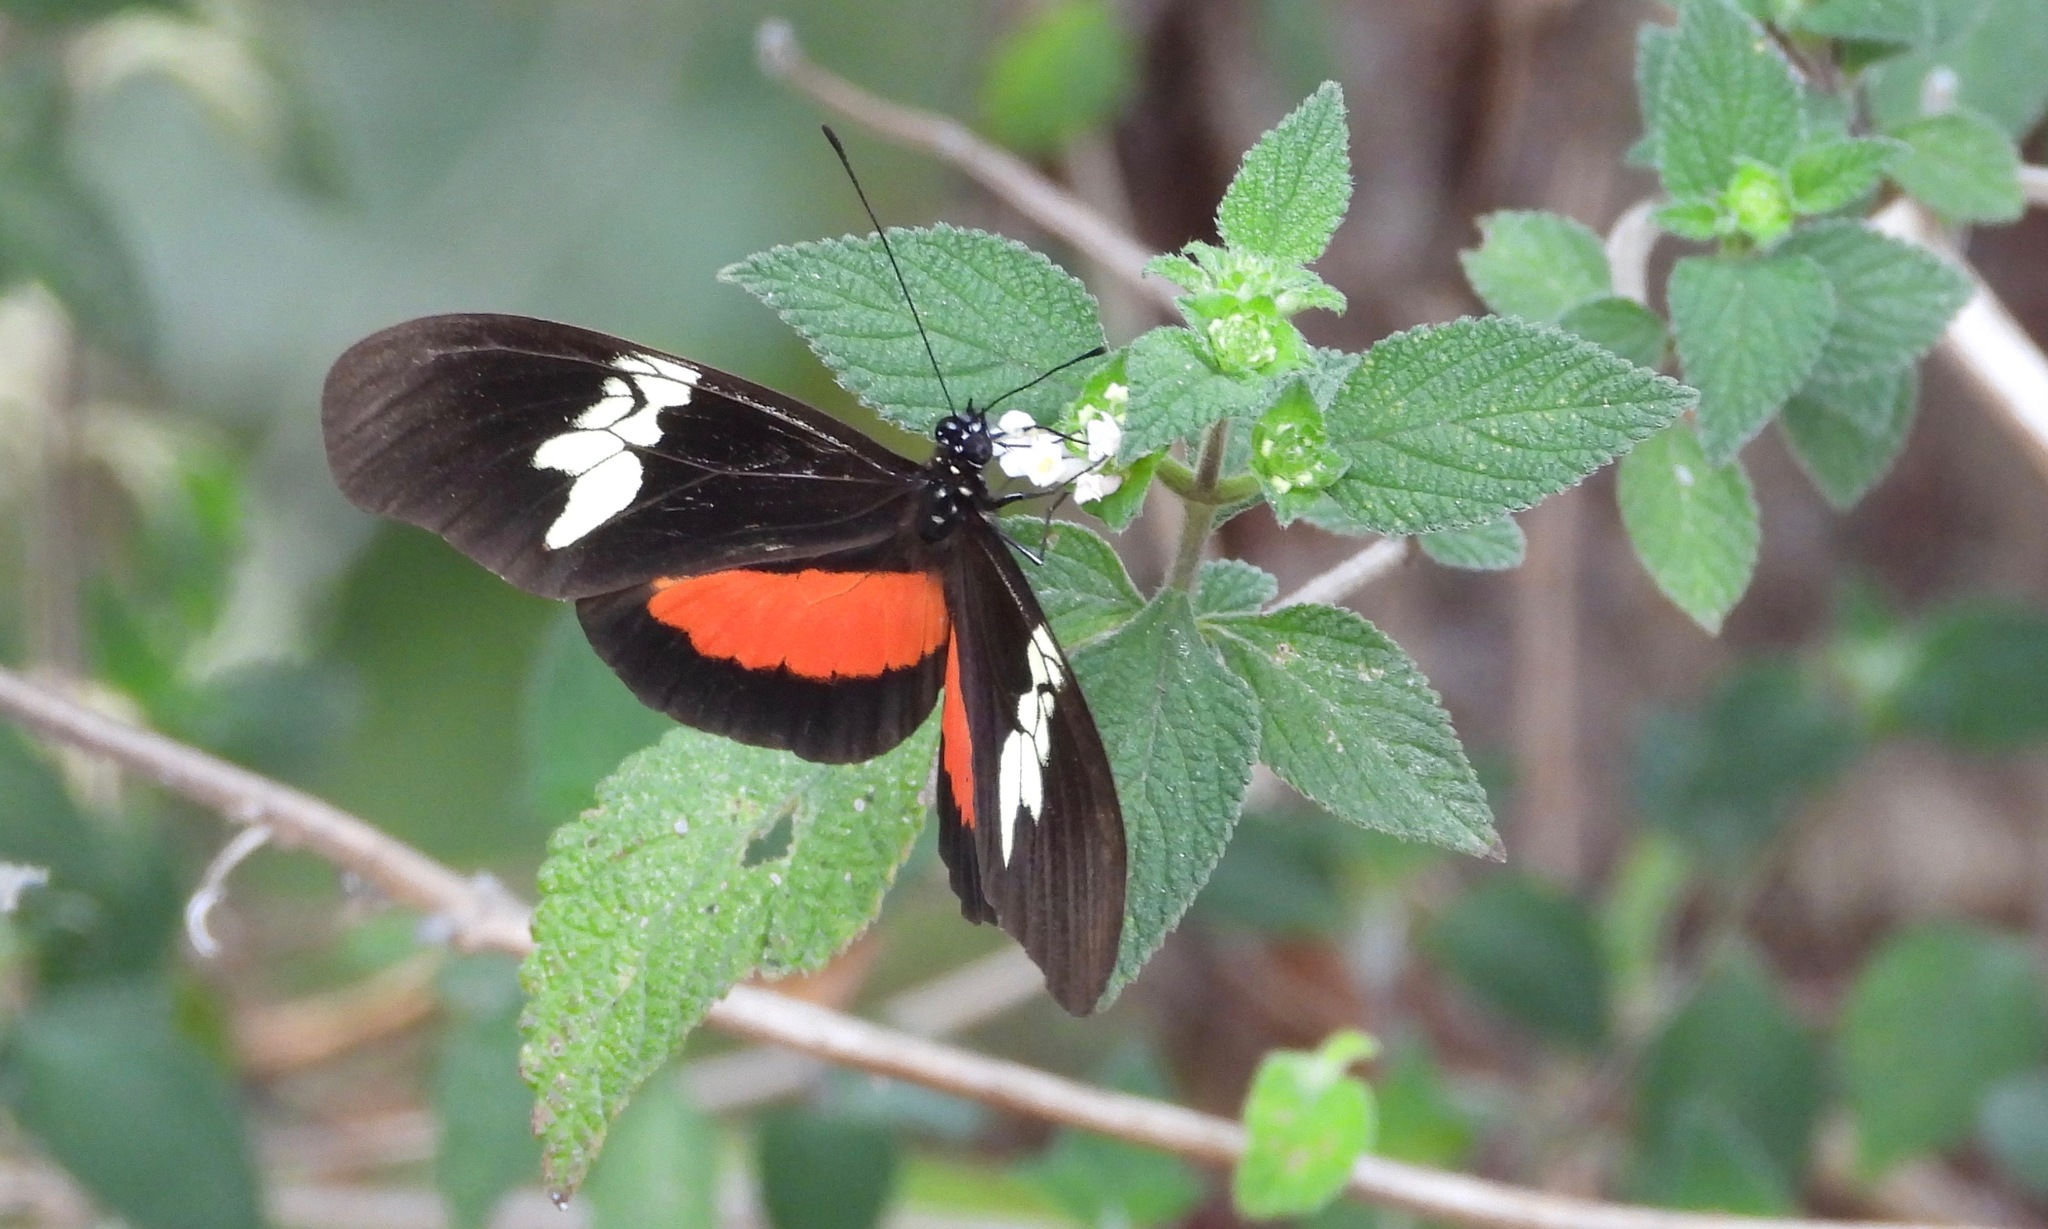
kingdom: Animalia
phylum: Arthropoda
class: Insecta
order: Lepidoptera
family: Nymphalidae
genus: Heliconius
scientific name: Heliconius hortense
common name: Mexican longwing
